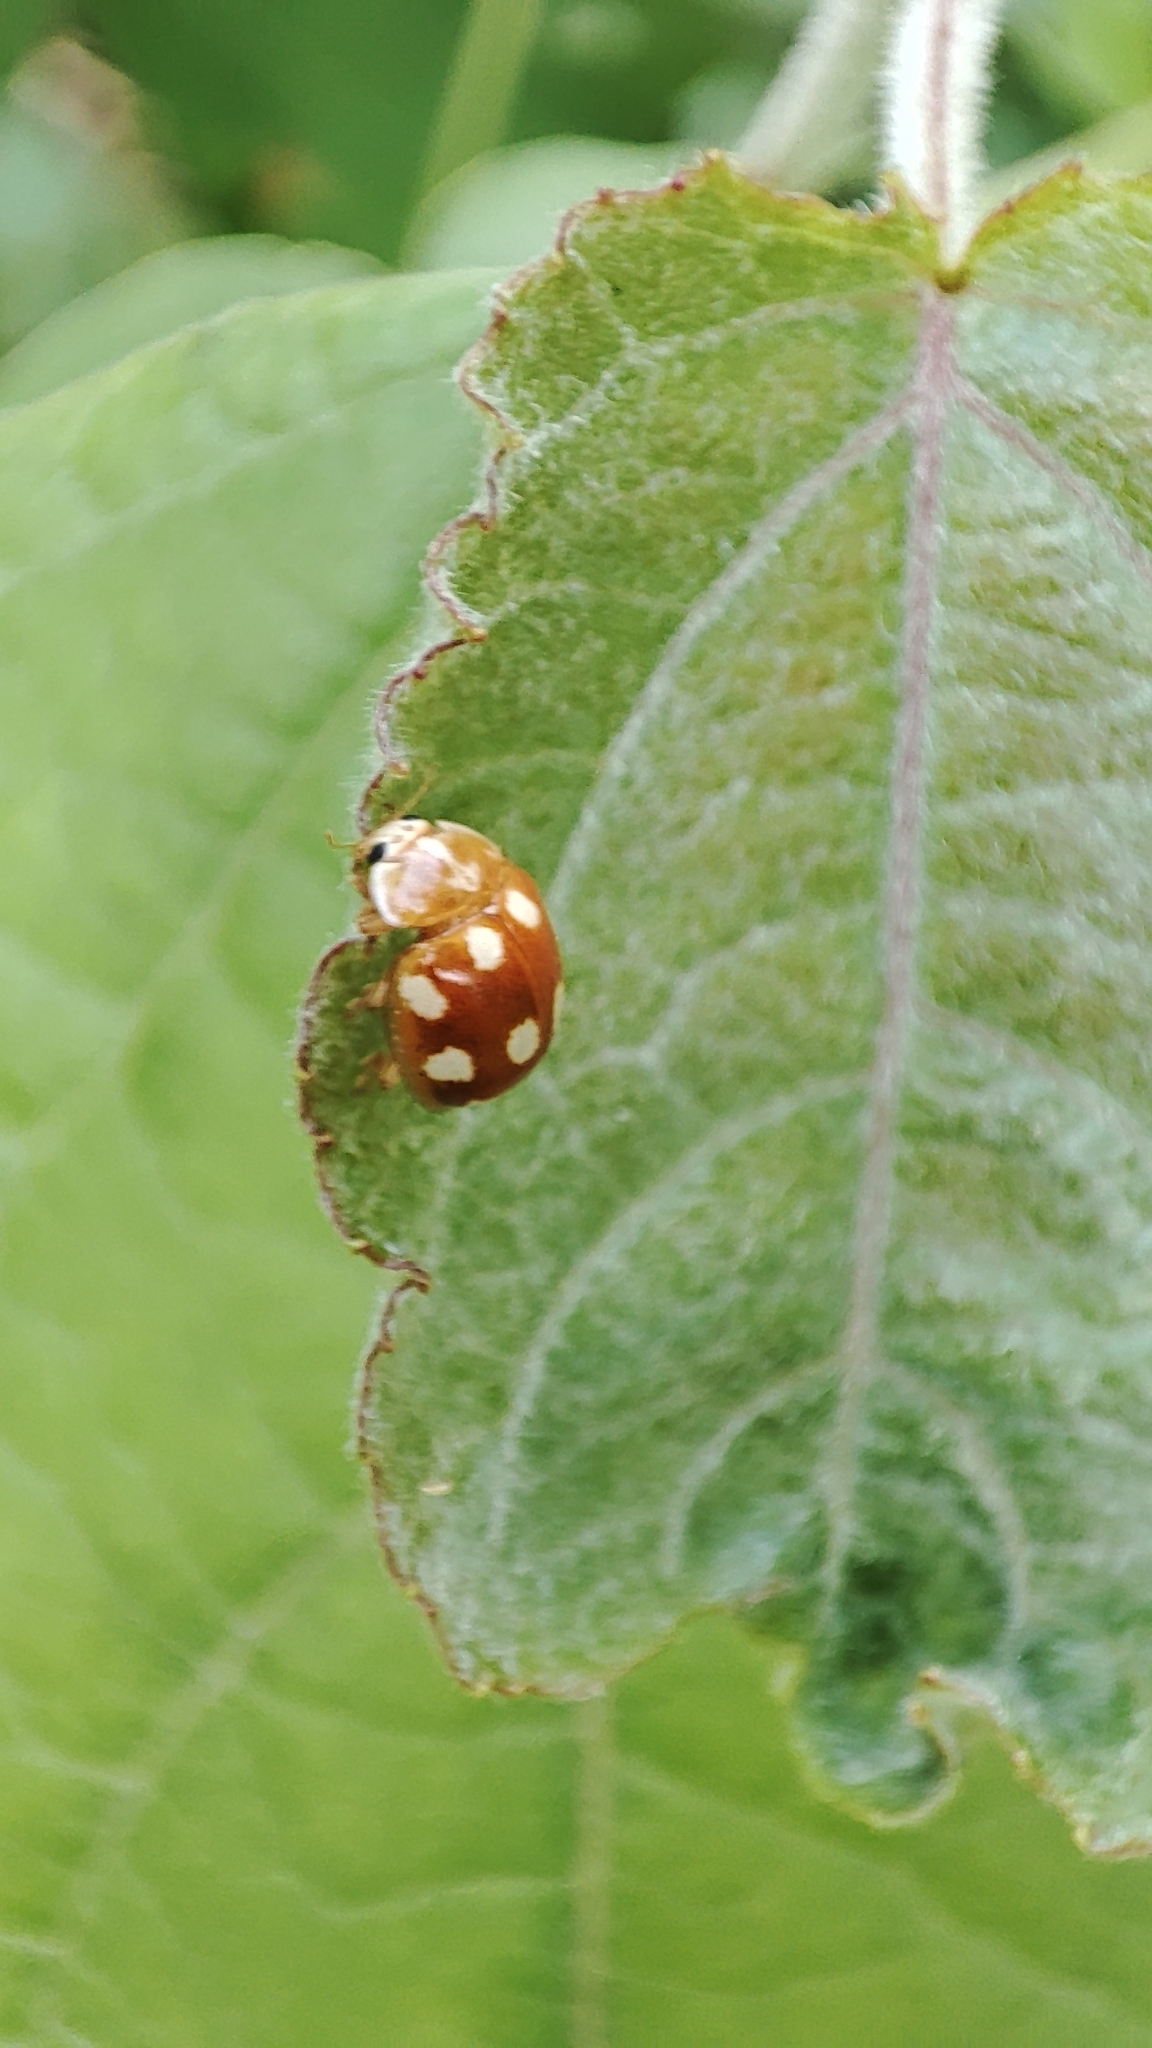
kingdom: Animalia
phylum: Arthropoda
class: Insecta
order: Coleoptera
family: Coccinellidae
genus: Calvia
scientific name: Calvia decemguttata
